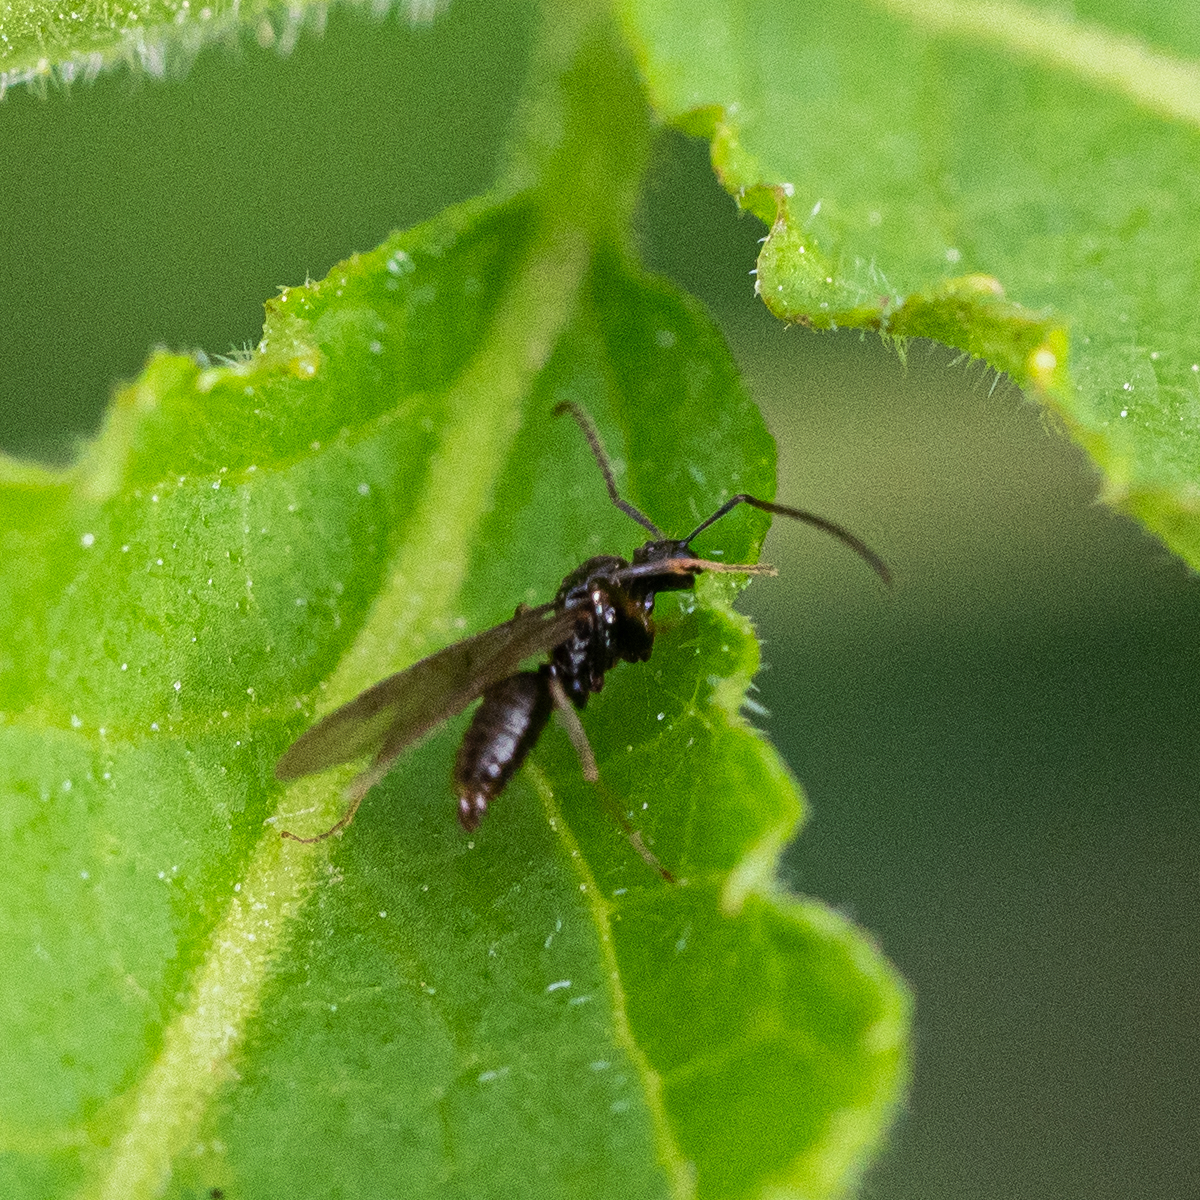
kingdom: Animalia
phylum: Arthropoda
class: Insecta
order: Hymenoptera
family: Formicidae
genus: Prenolepis
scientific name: Prenolepis nitens
